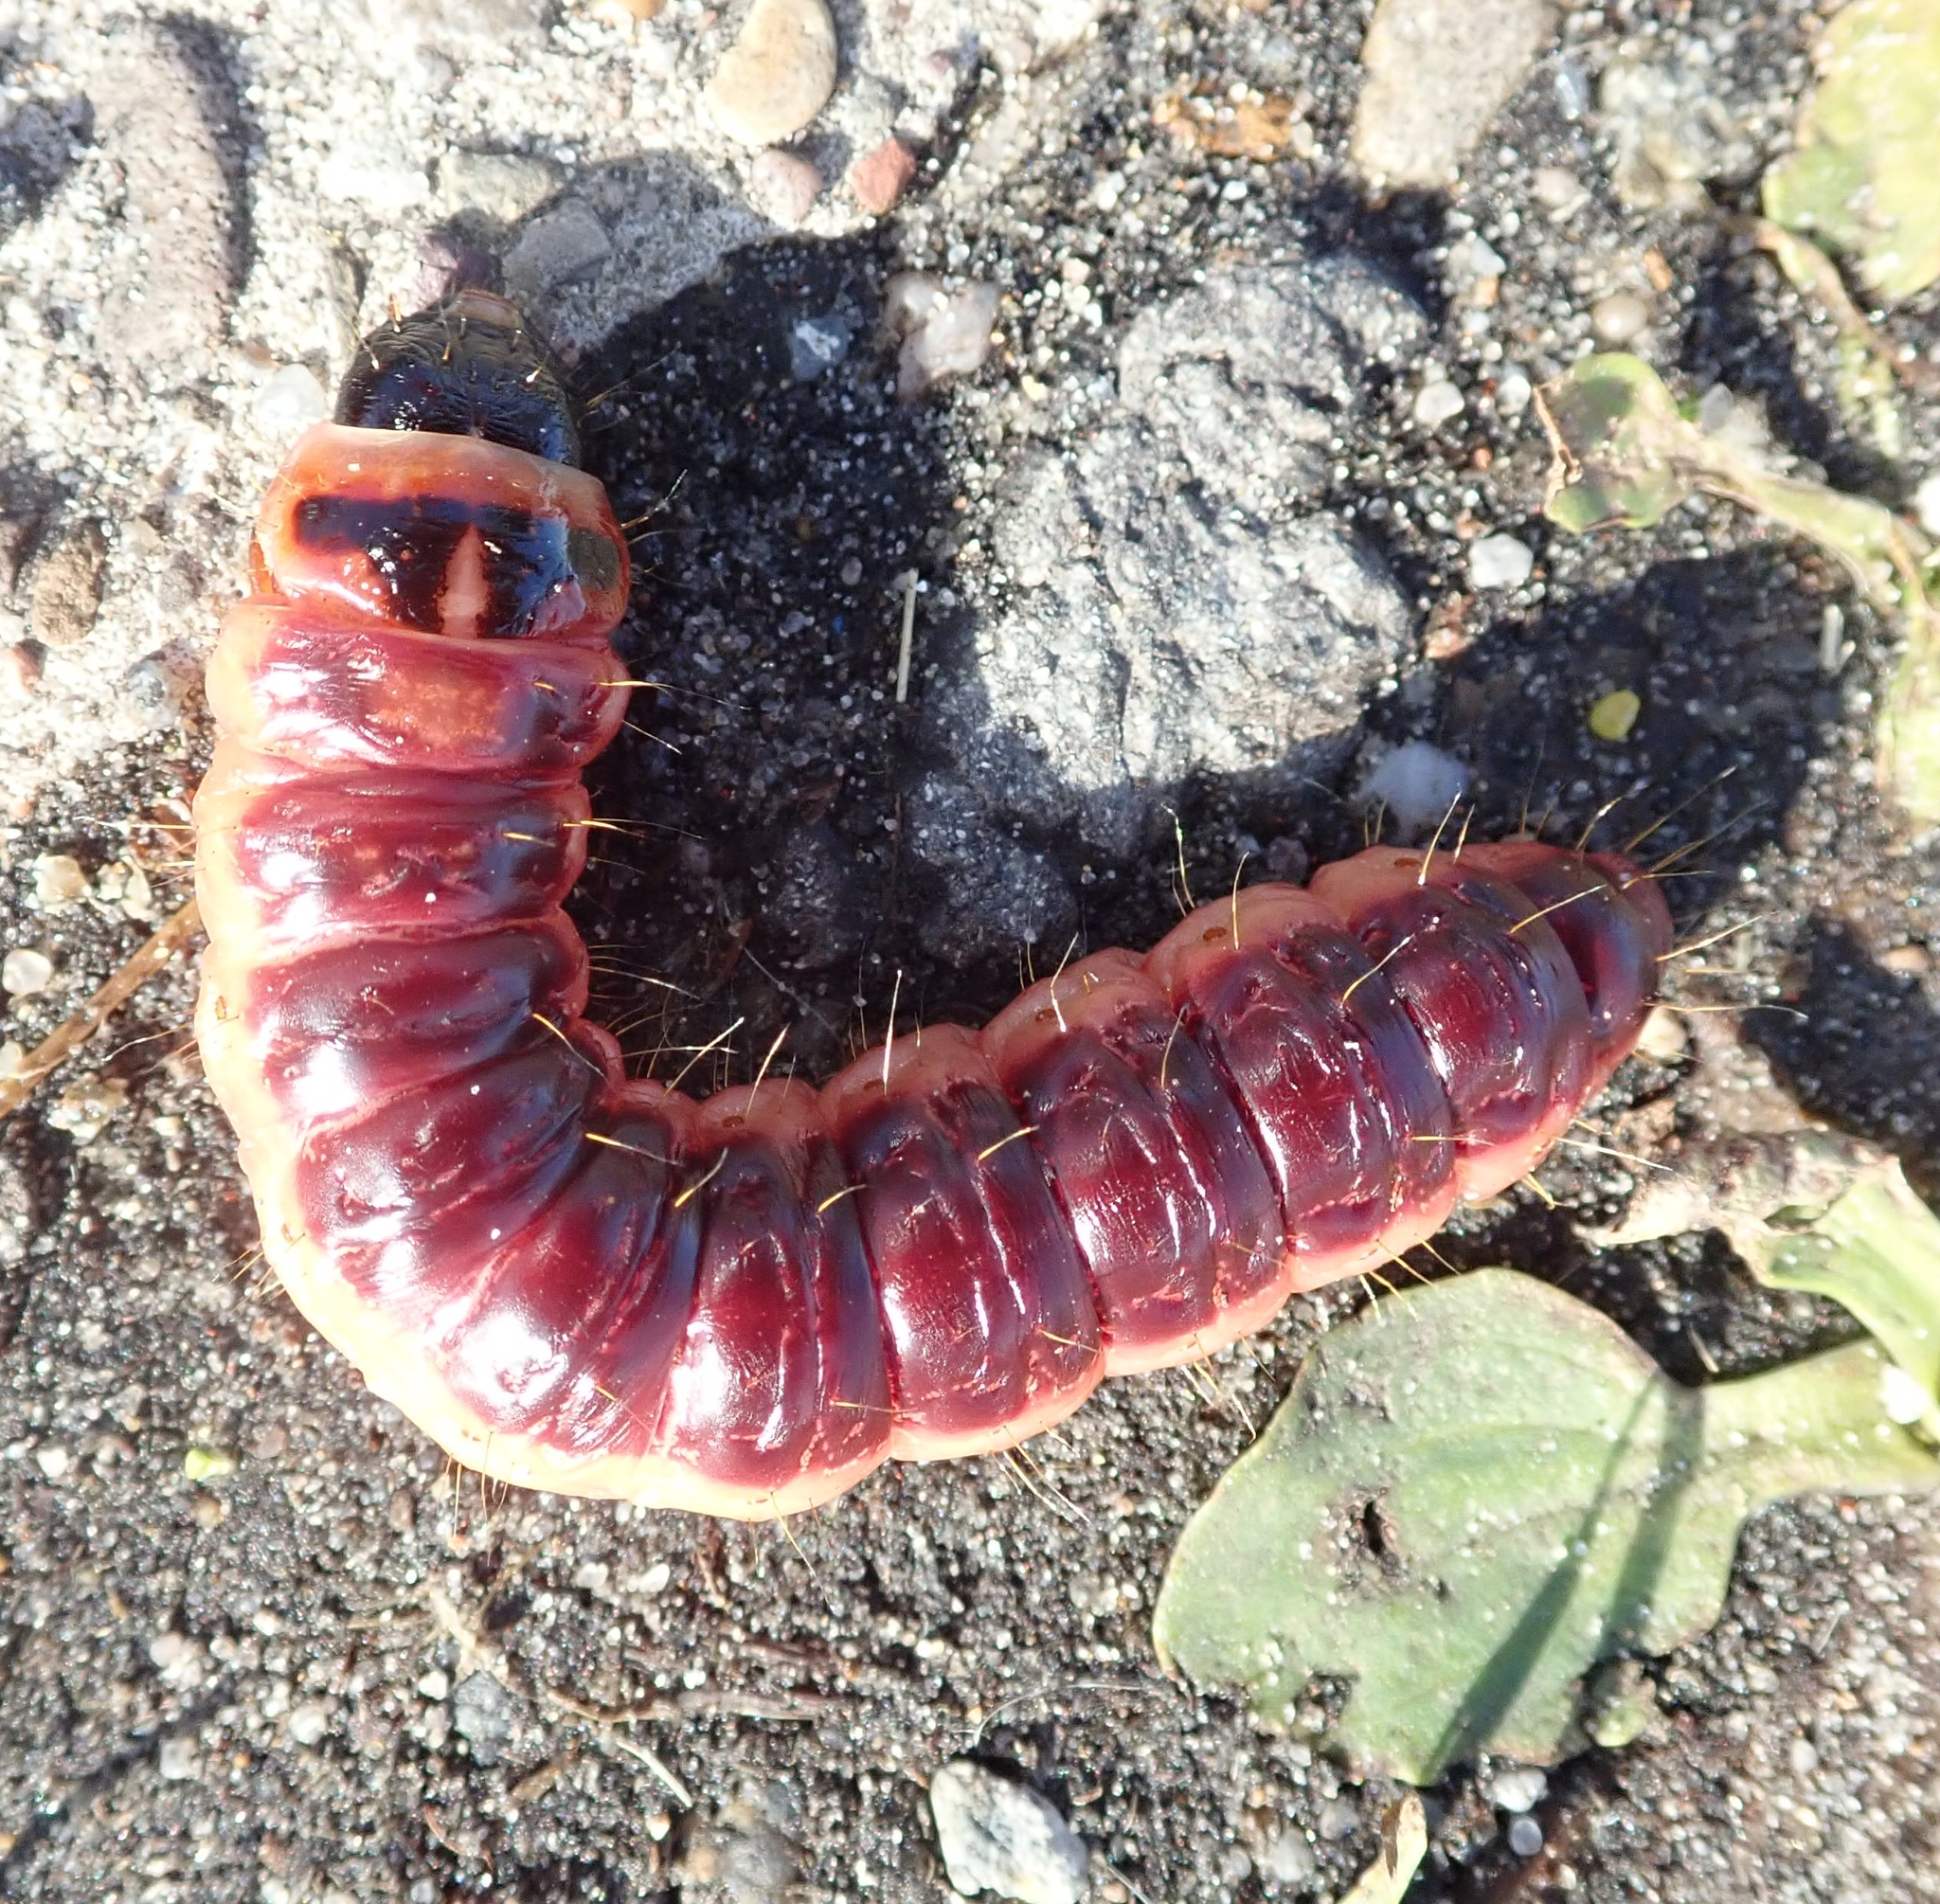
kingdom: Animalia
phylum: Arthropoda
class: Insecta
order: Lepidoptera
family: Cossidae
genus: Cossus
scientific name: Cossus cossus
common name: Goat moth
